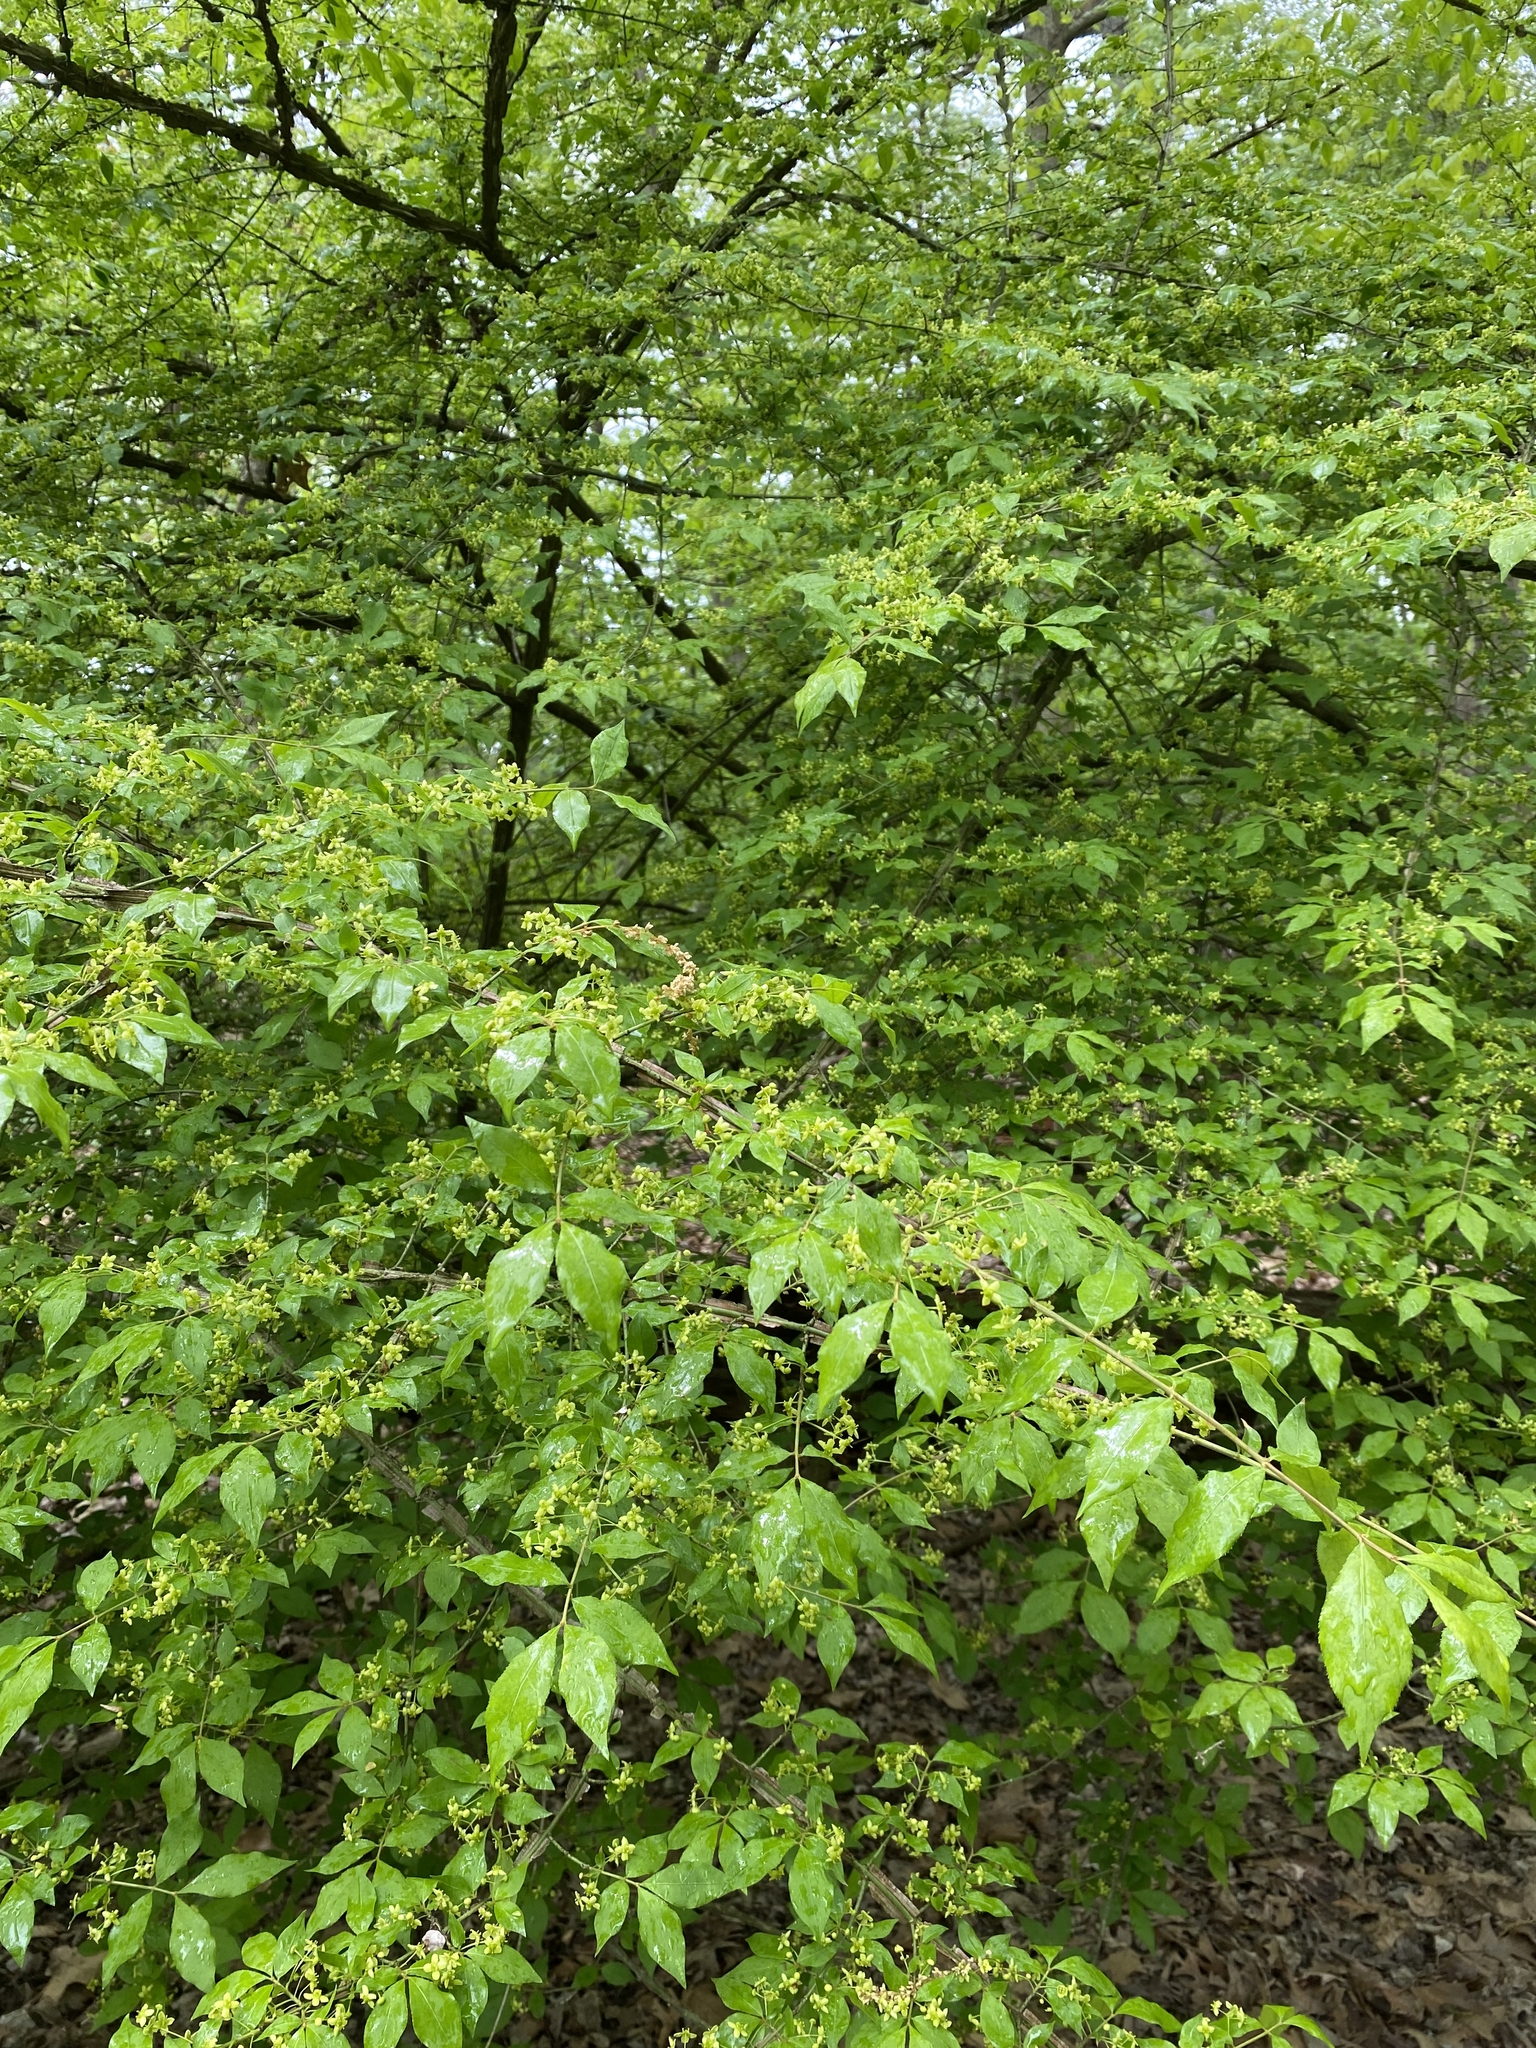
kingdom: Plantae
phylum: Tracheophyta
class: Magnoliopsida
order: Celastrales
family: Celastraceae
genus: Euonymus
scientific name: Euonymus alatus
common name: Winged euonymus
